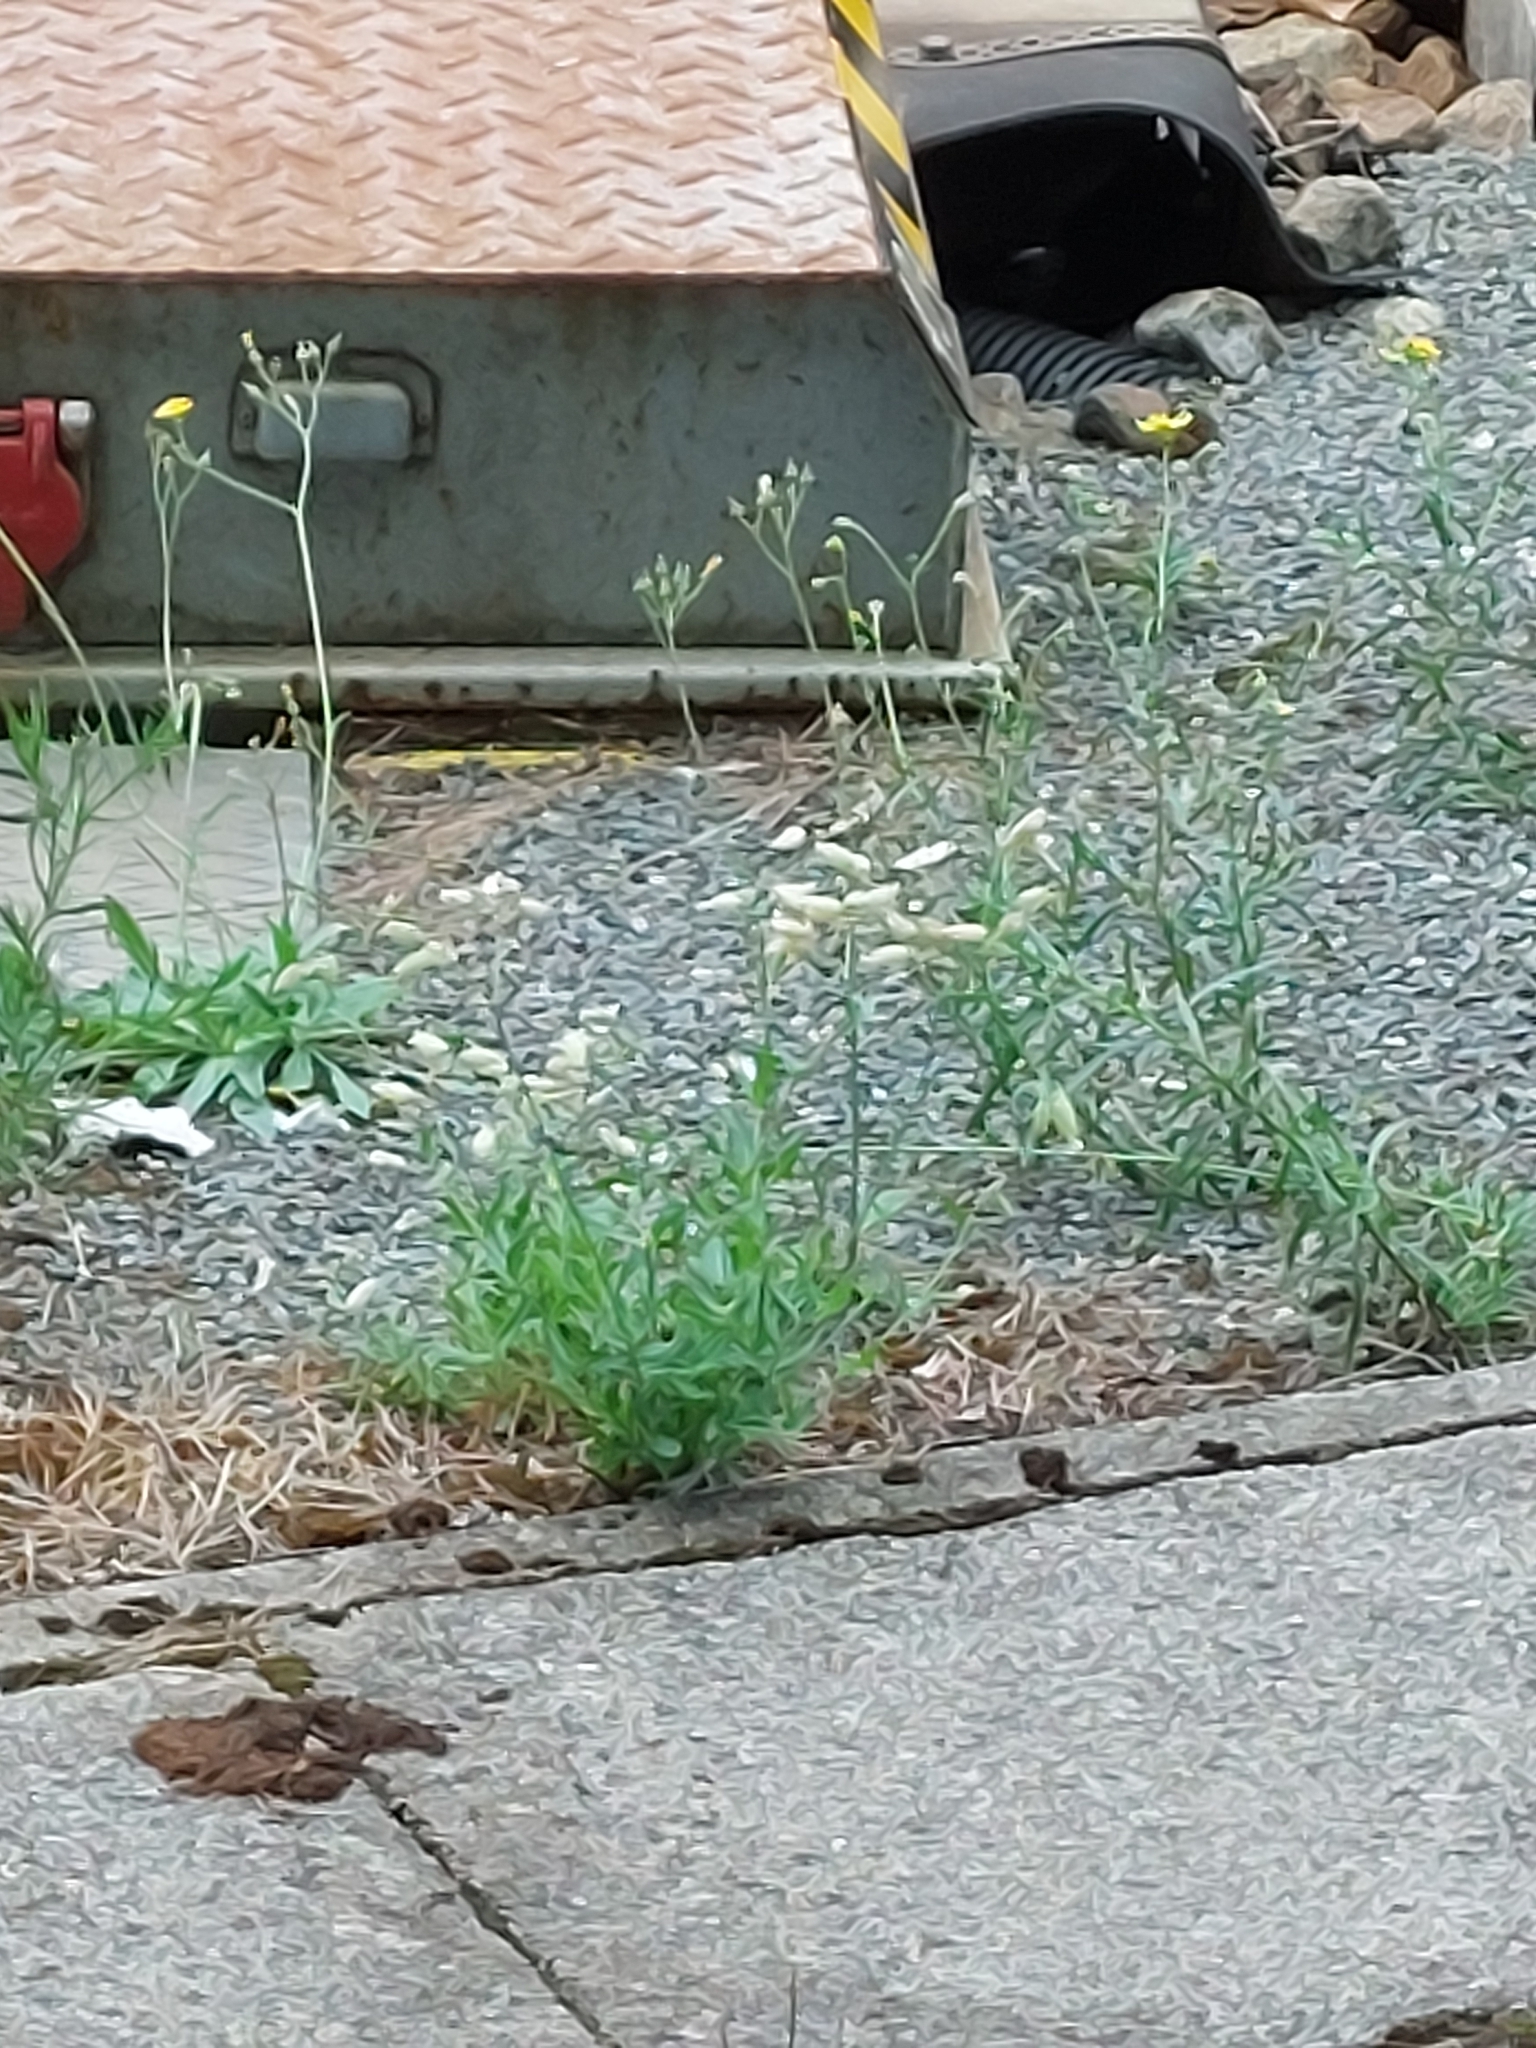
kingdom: Plantae
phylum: Tracheophyta
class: Magnoliopsida
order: Caryophyllales
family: Caryophyllaceae
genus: Silene
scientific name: Silene vulgaris
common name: Bladder campion
